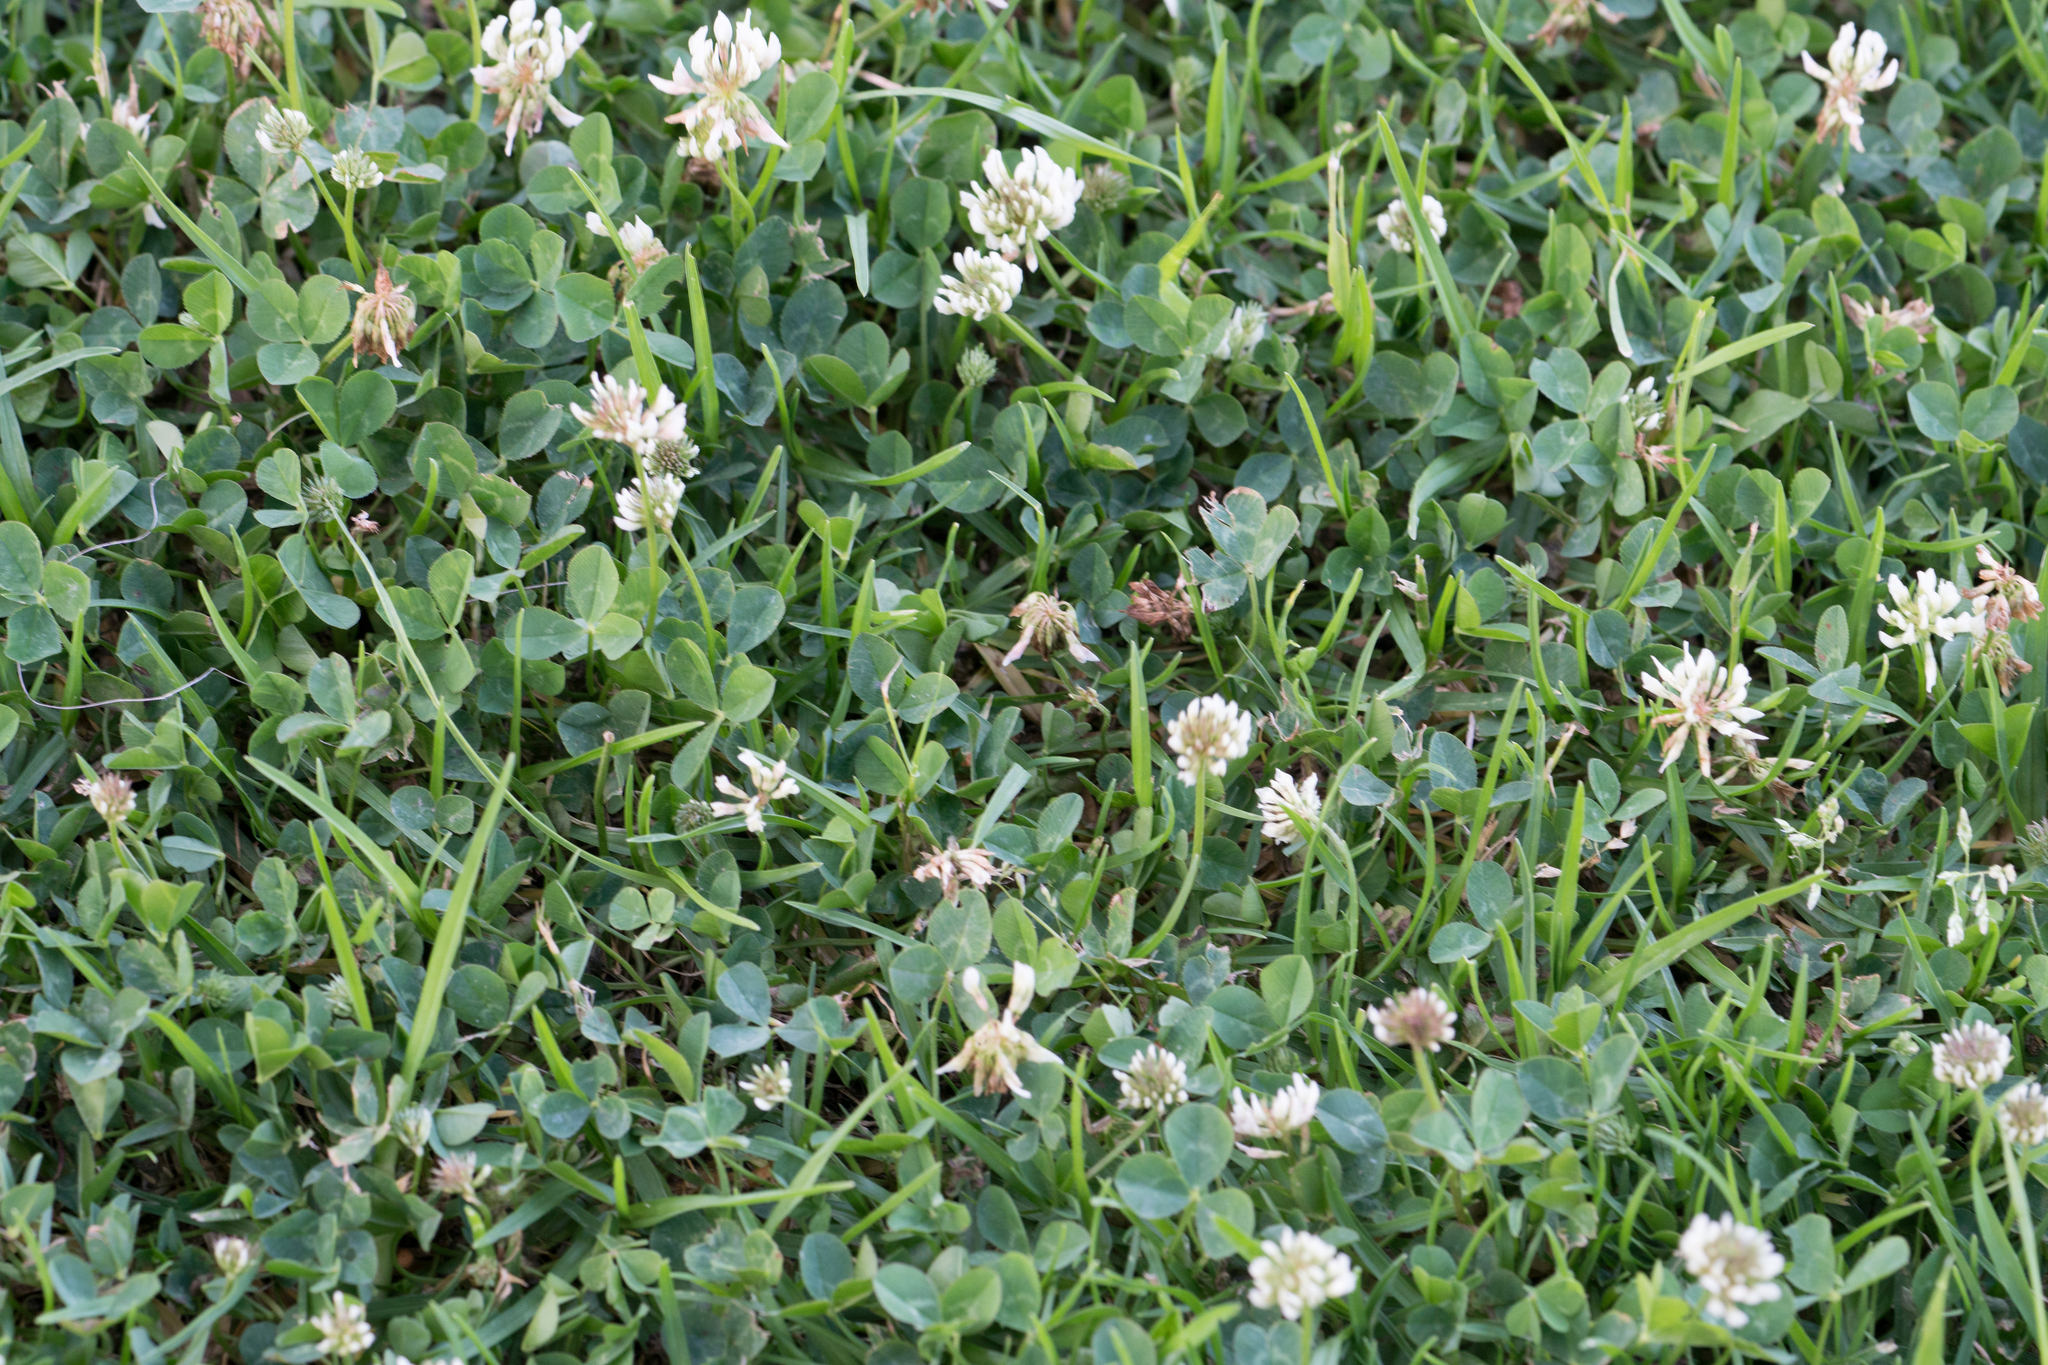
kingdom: Plantae
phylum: Tracheophyta
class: Magnoliopsida
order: Fabales
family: Fabaceae
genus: Trifolium
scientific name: Trifolium repens
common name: White clover
